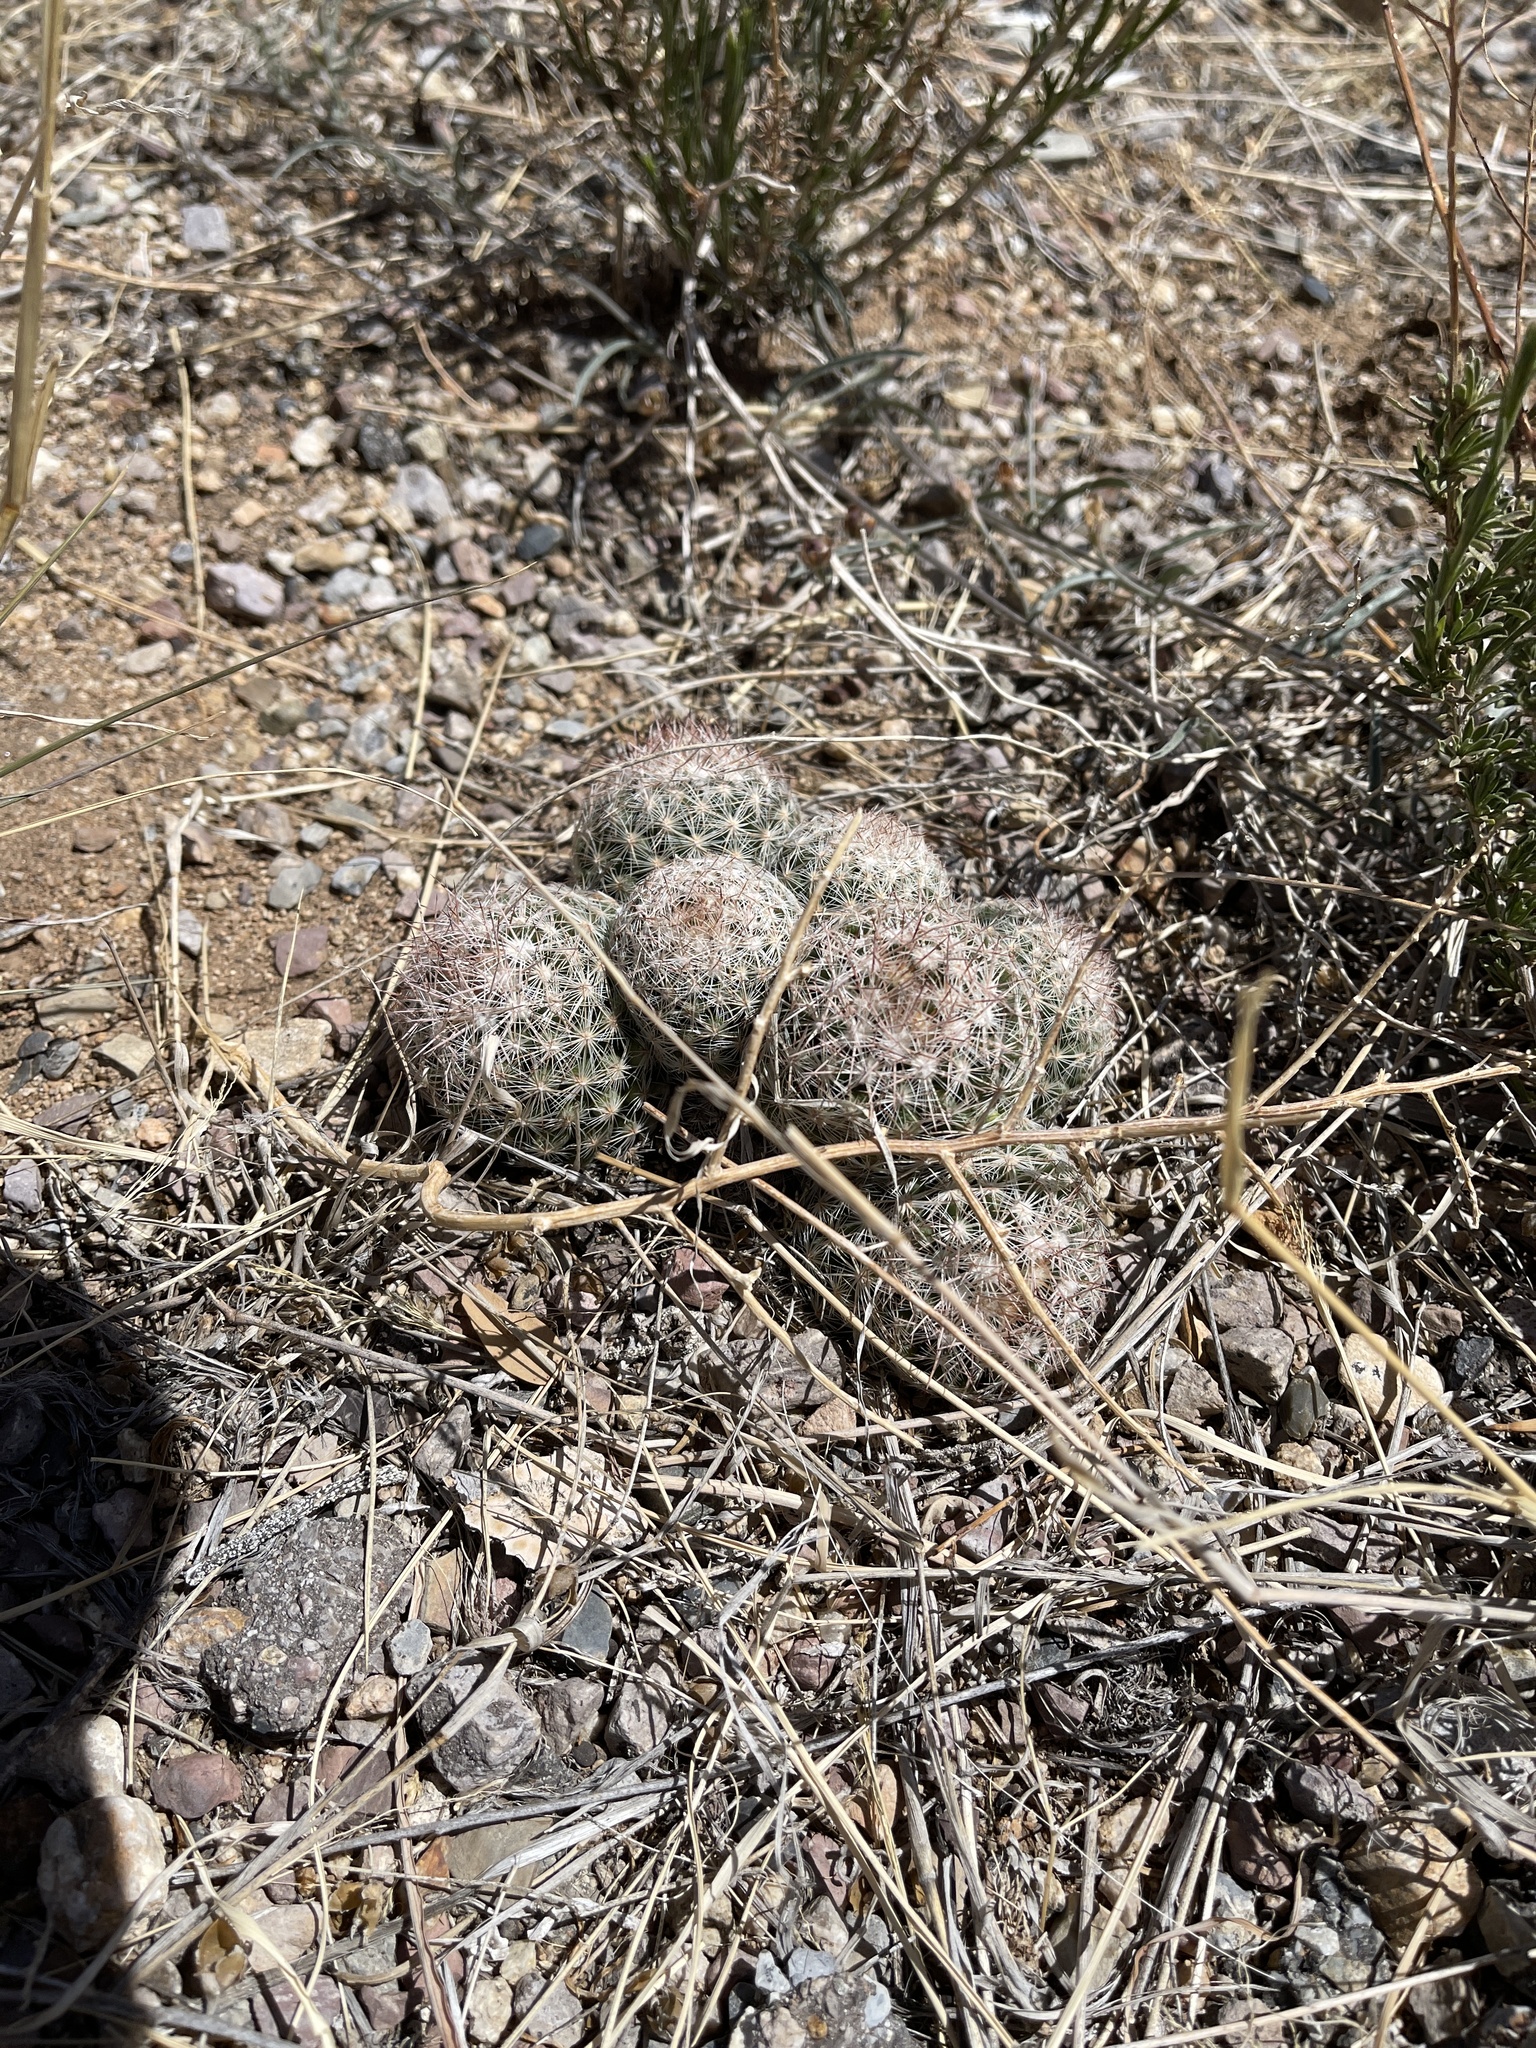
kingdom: Plantae
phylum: Tracheophyta
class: Magnoliopsida
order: Caryophyllales
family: Cactaceae
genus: Pelecyphora
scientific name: Pelecyphora vivipara
